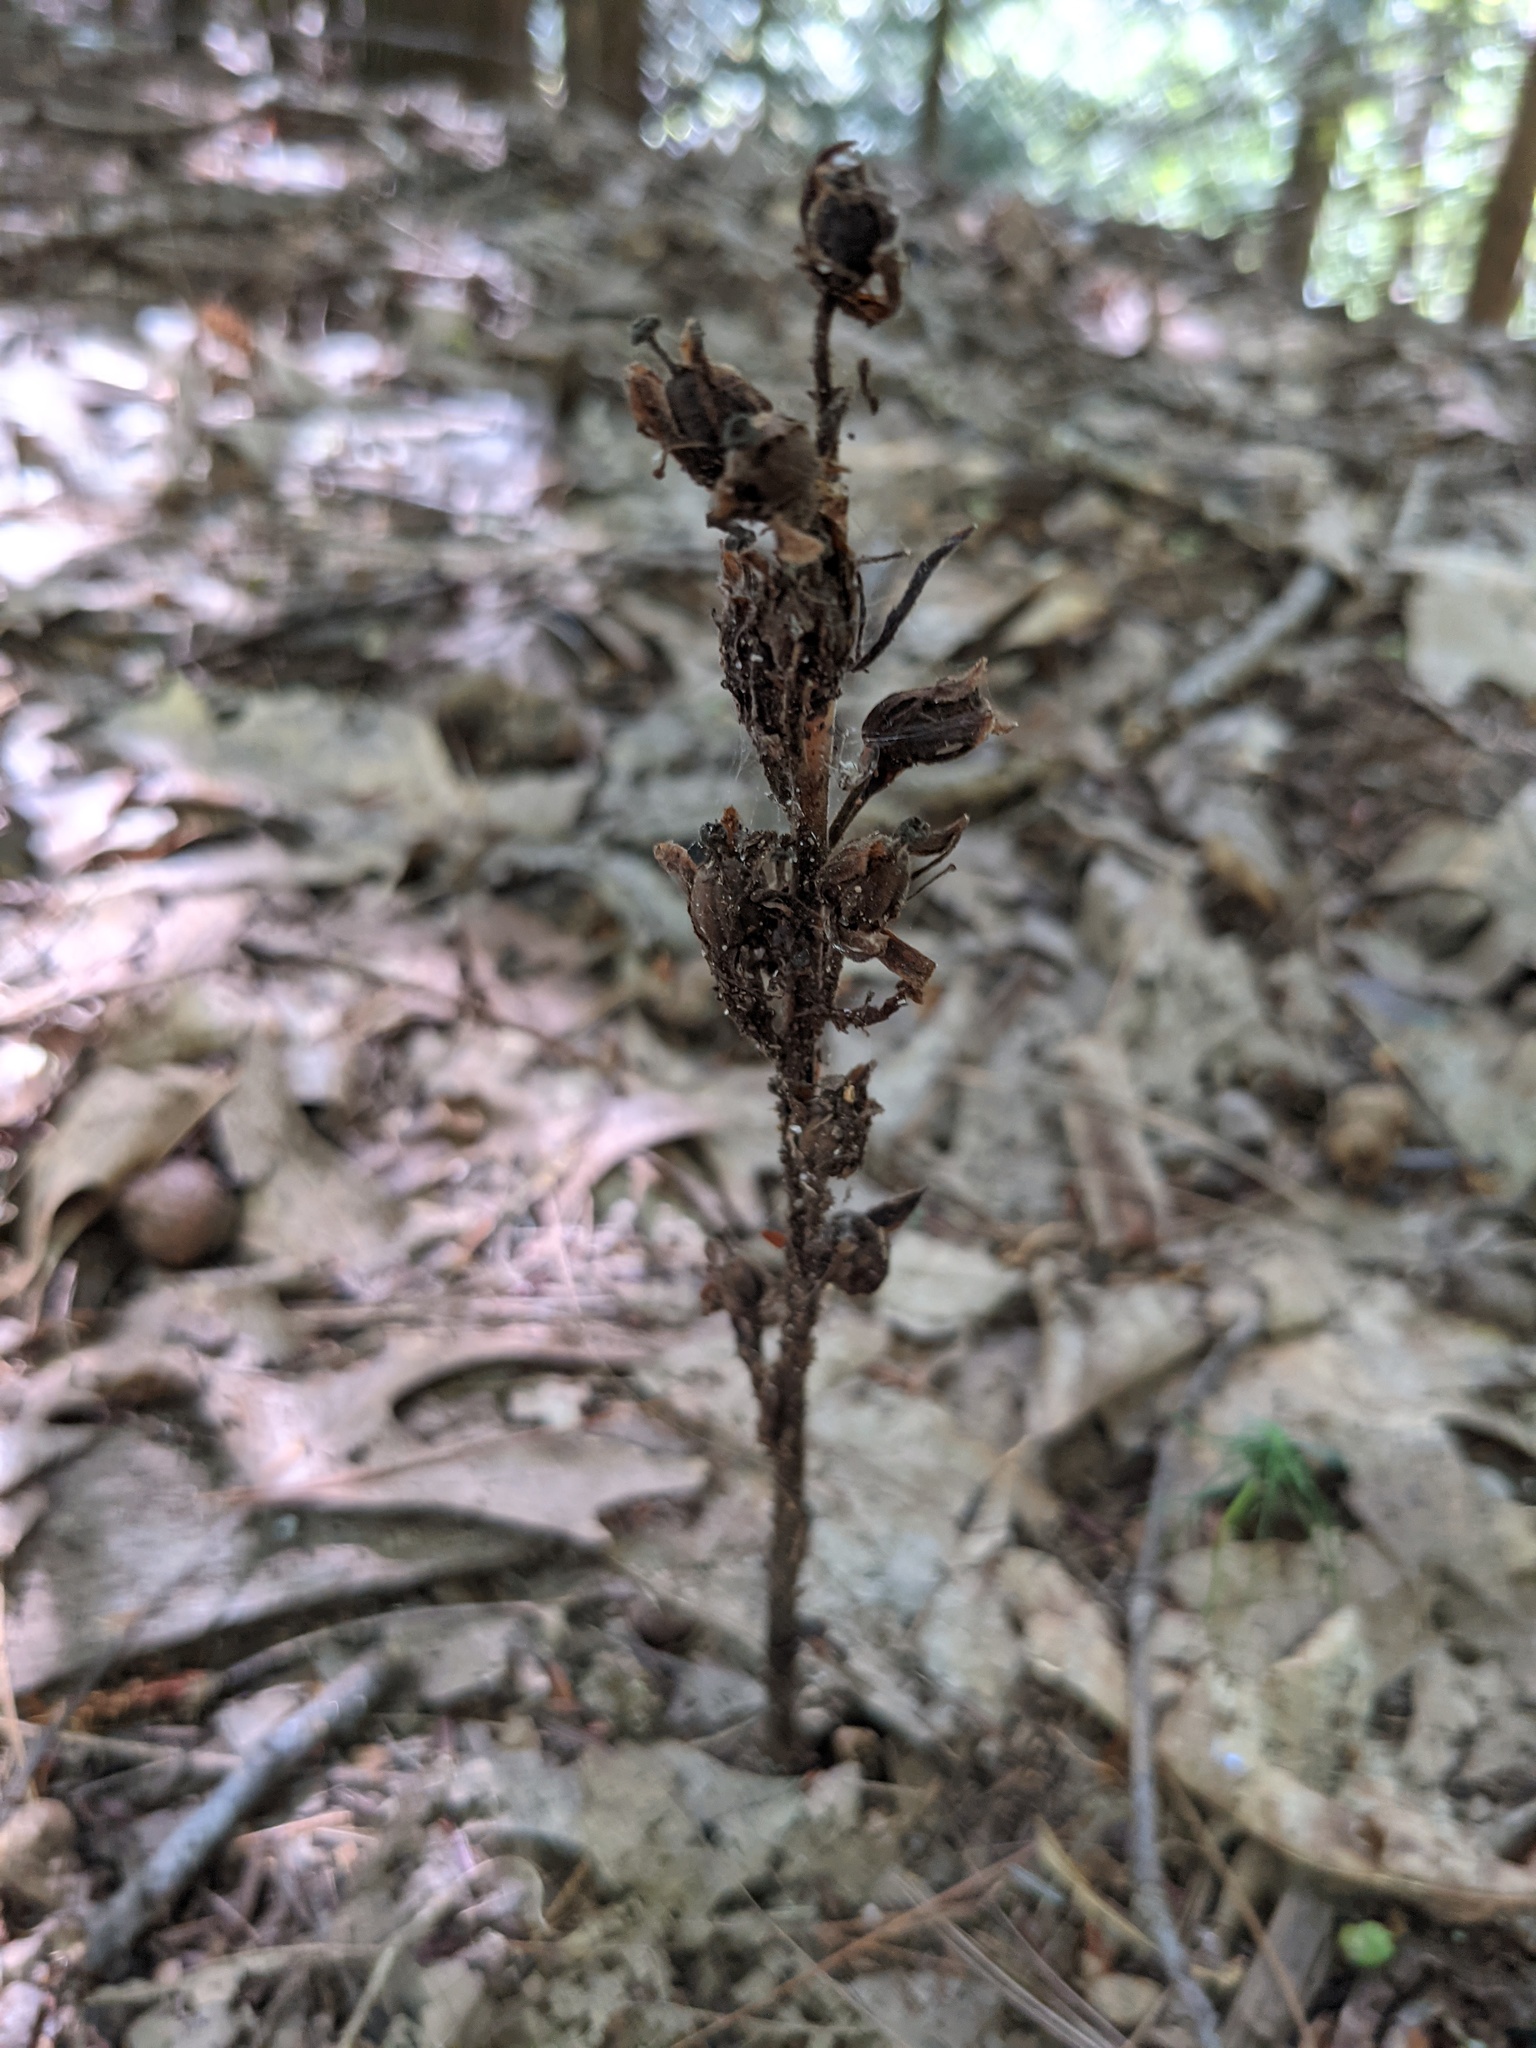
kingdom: Plantae
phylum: Tracheophyta
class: Magnoliopsida
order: Ericales
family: Ericaceae
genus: Hypopitys
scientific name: Hypopitys monotropa
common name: Yellow bird's-nest
